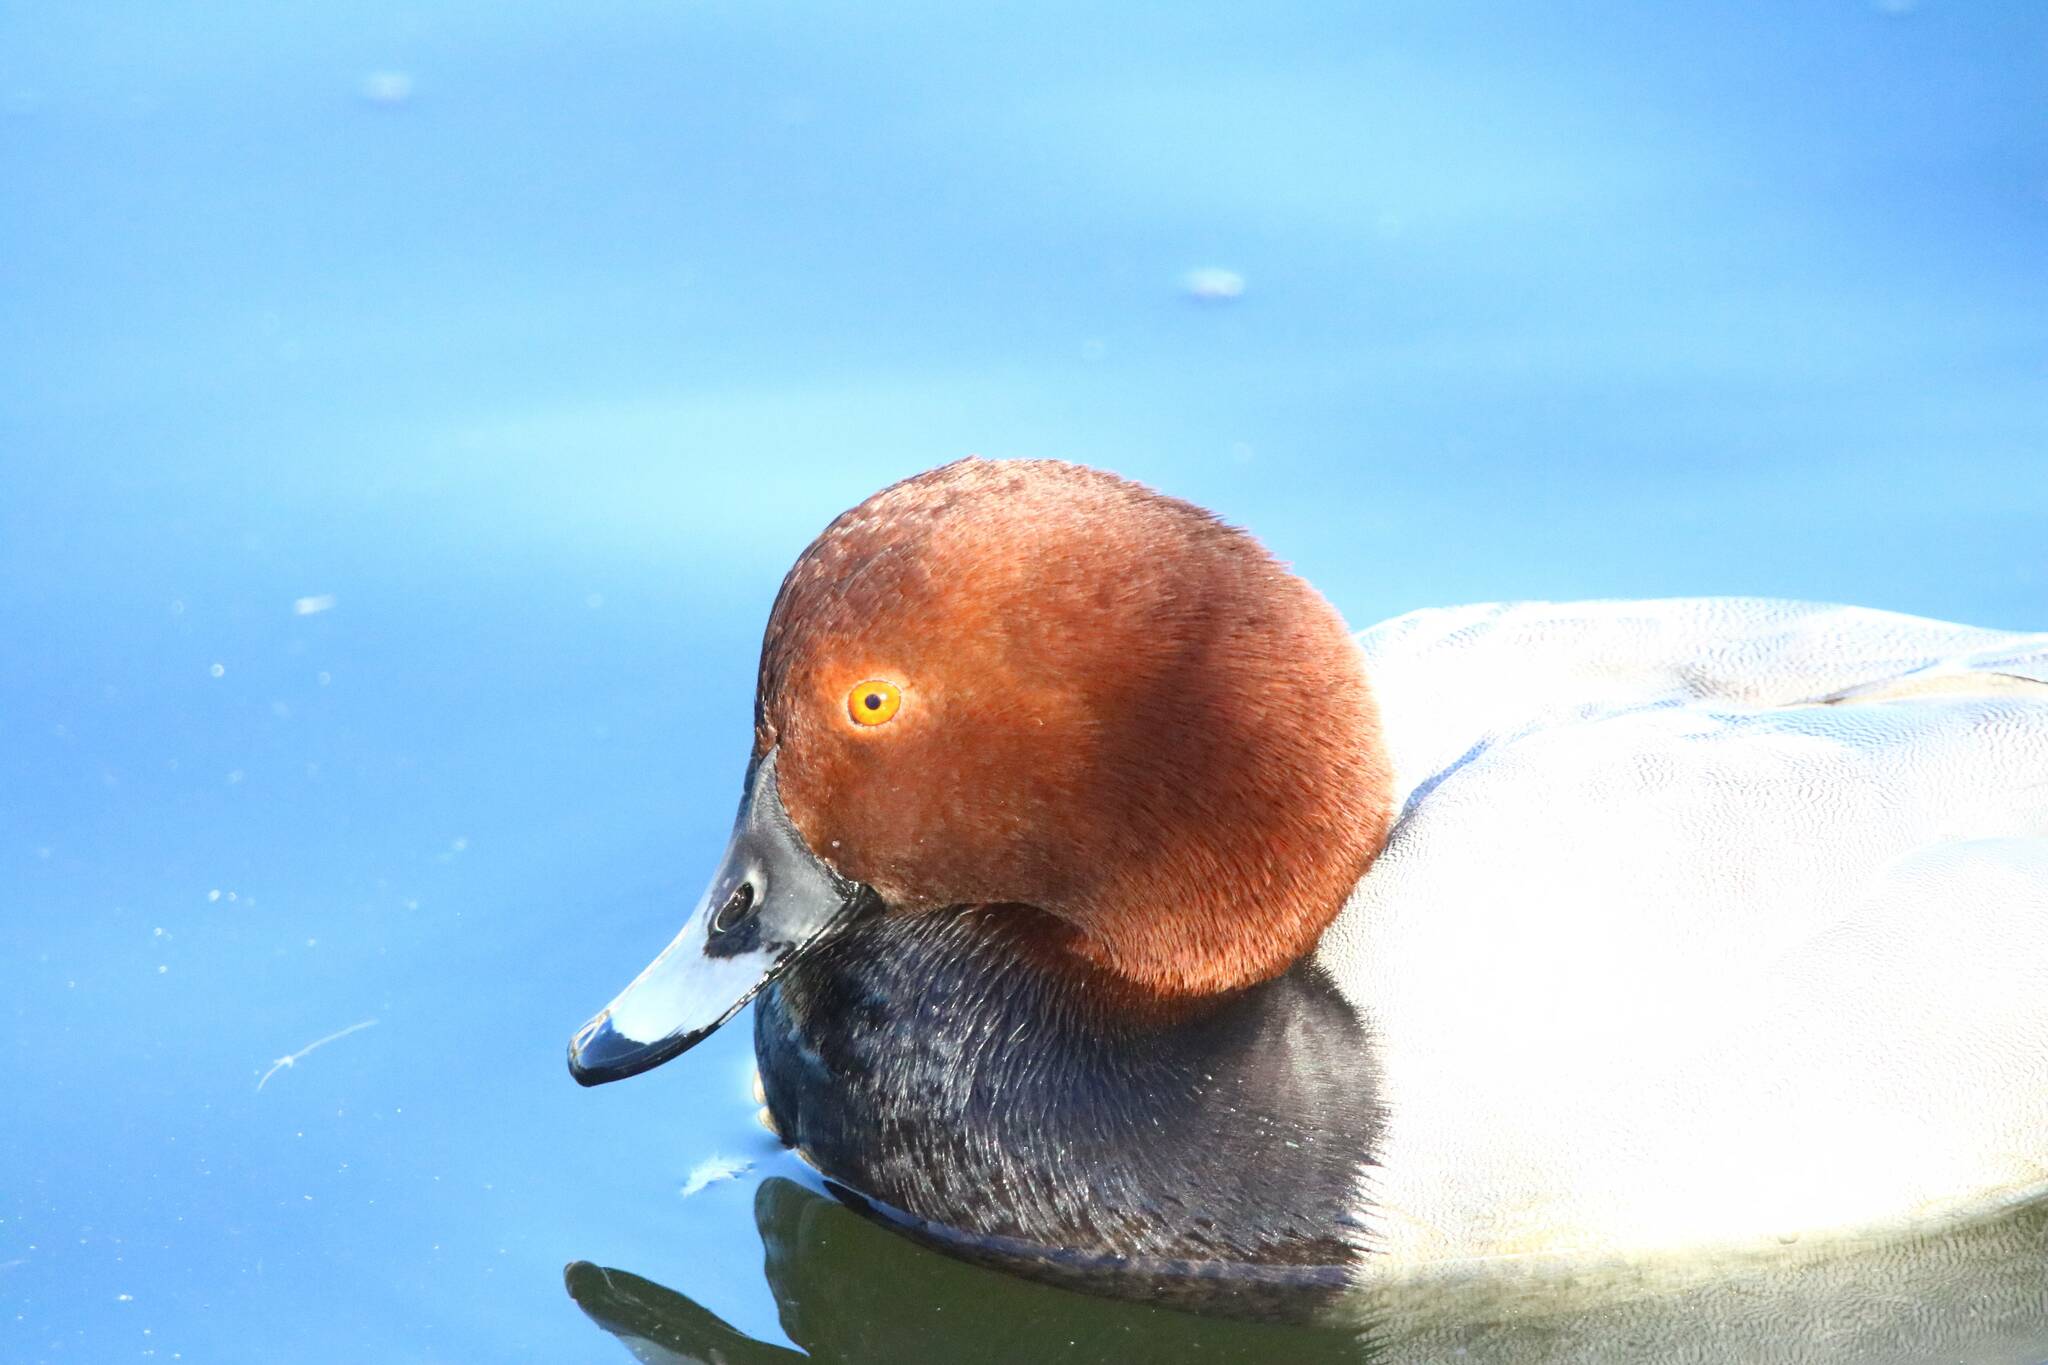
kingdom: Animalia
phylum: Chordata
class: Aves
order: Anseriformes
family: Anatidae
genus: Aythya
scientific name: Aythya ferina
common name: Common pochard
